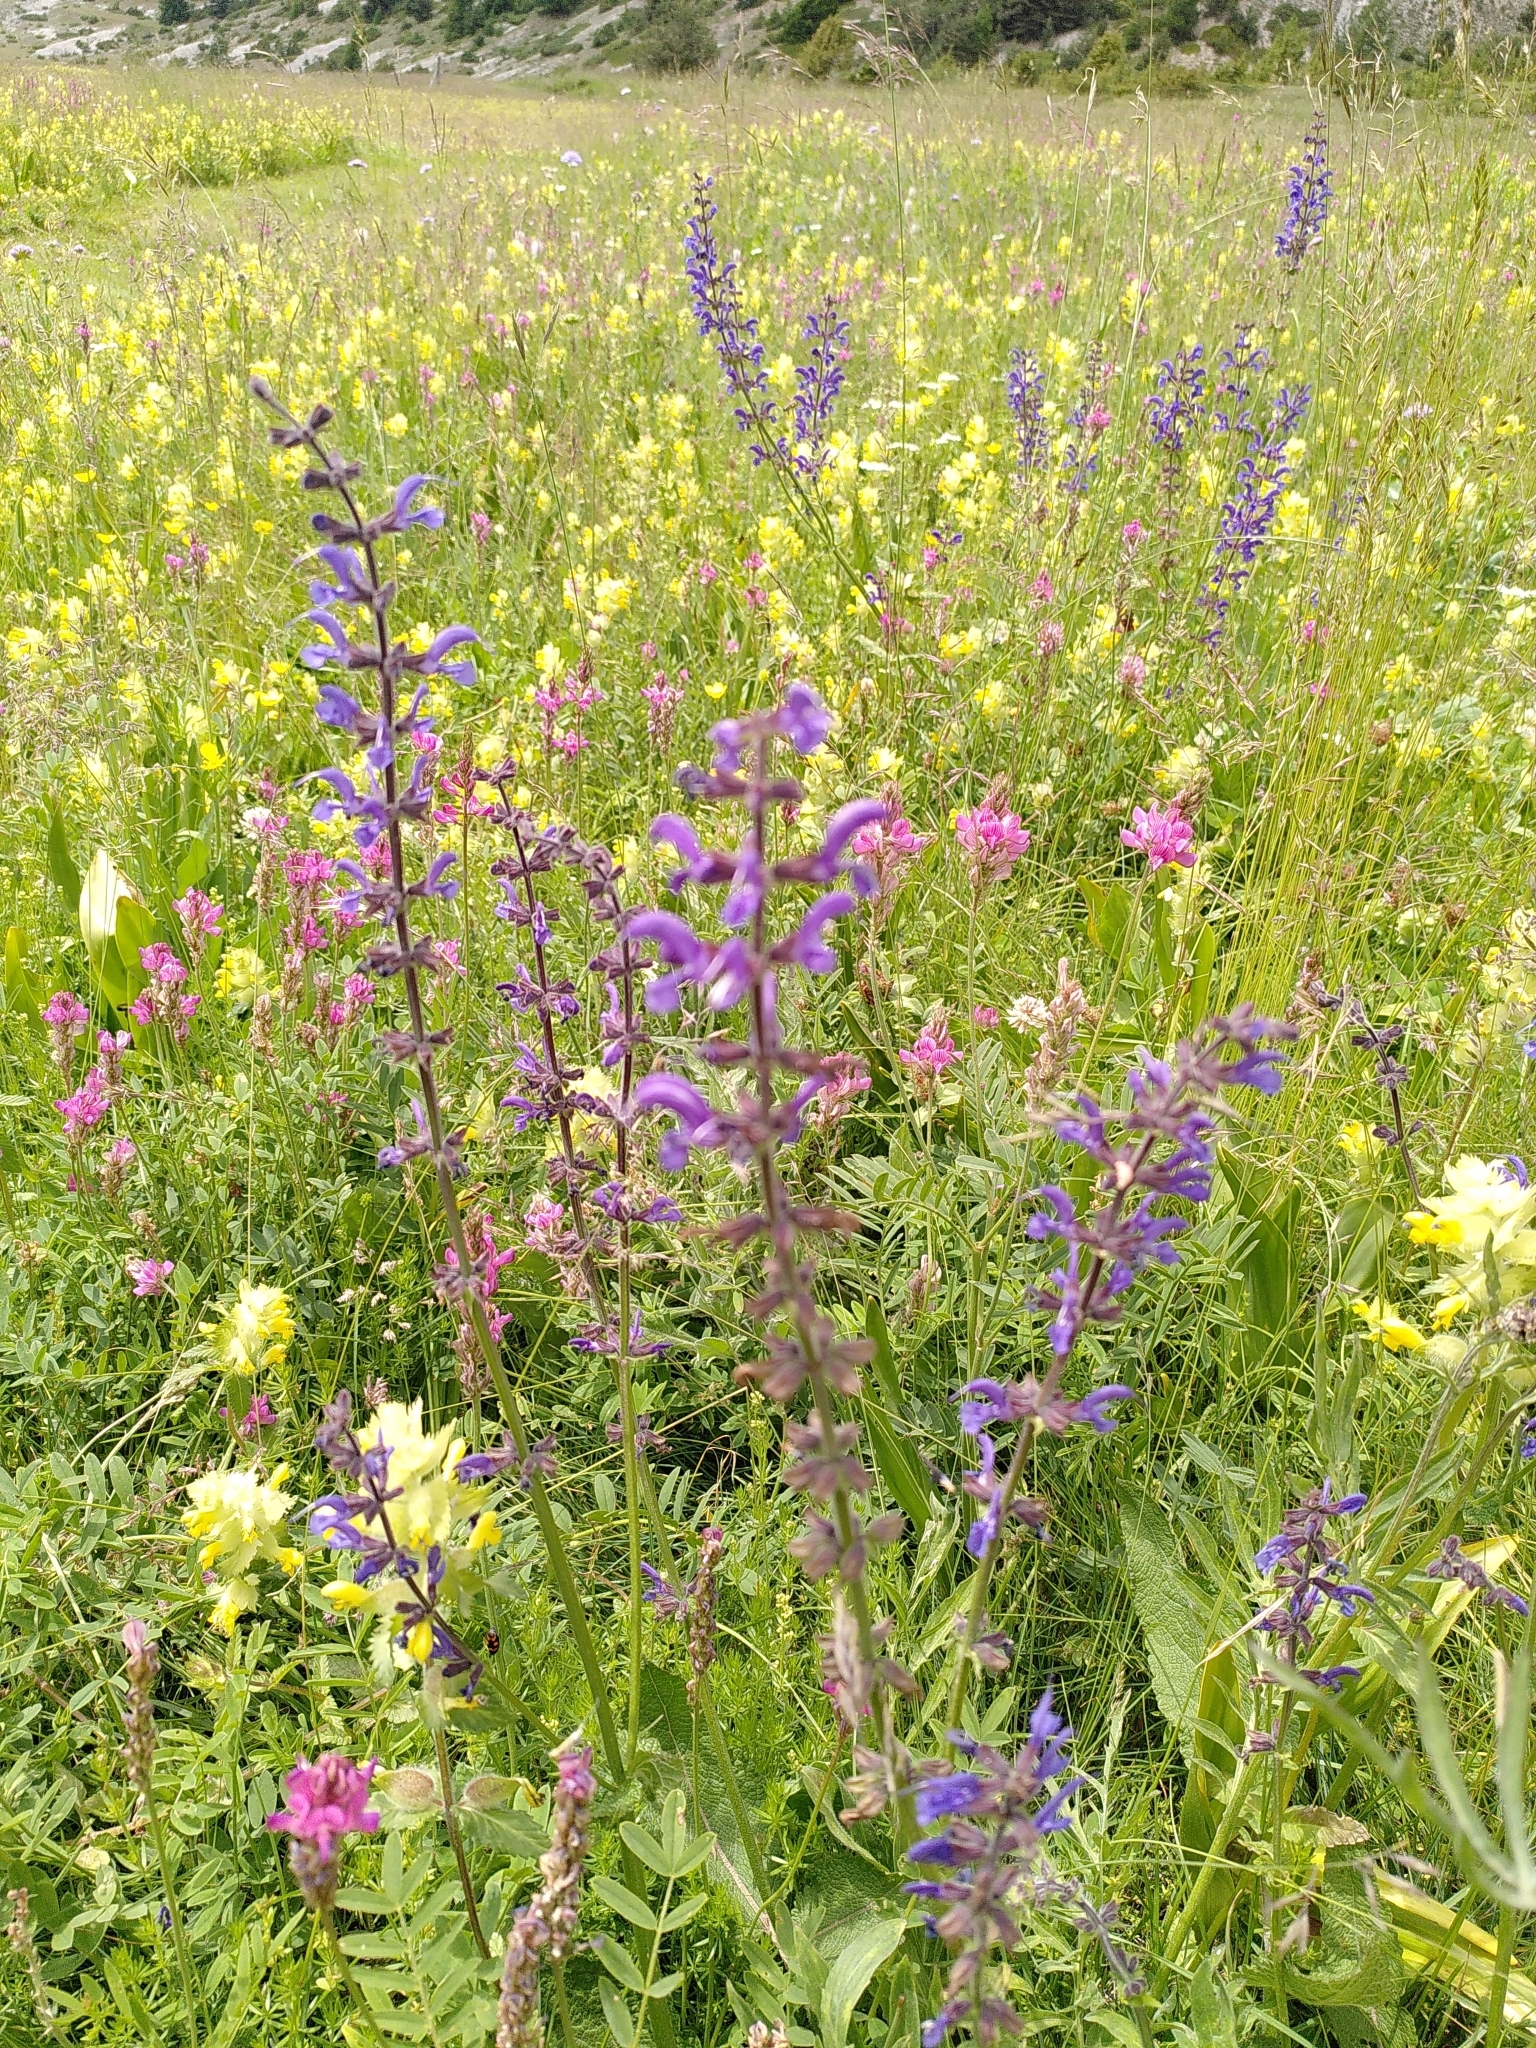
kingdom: Plantae
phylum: Tracheophyta
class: Magnoliopsida
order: Lamiales
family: Lamiaceae
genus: Salvia
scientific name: Salvia pratensis
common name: Meadow sage
